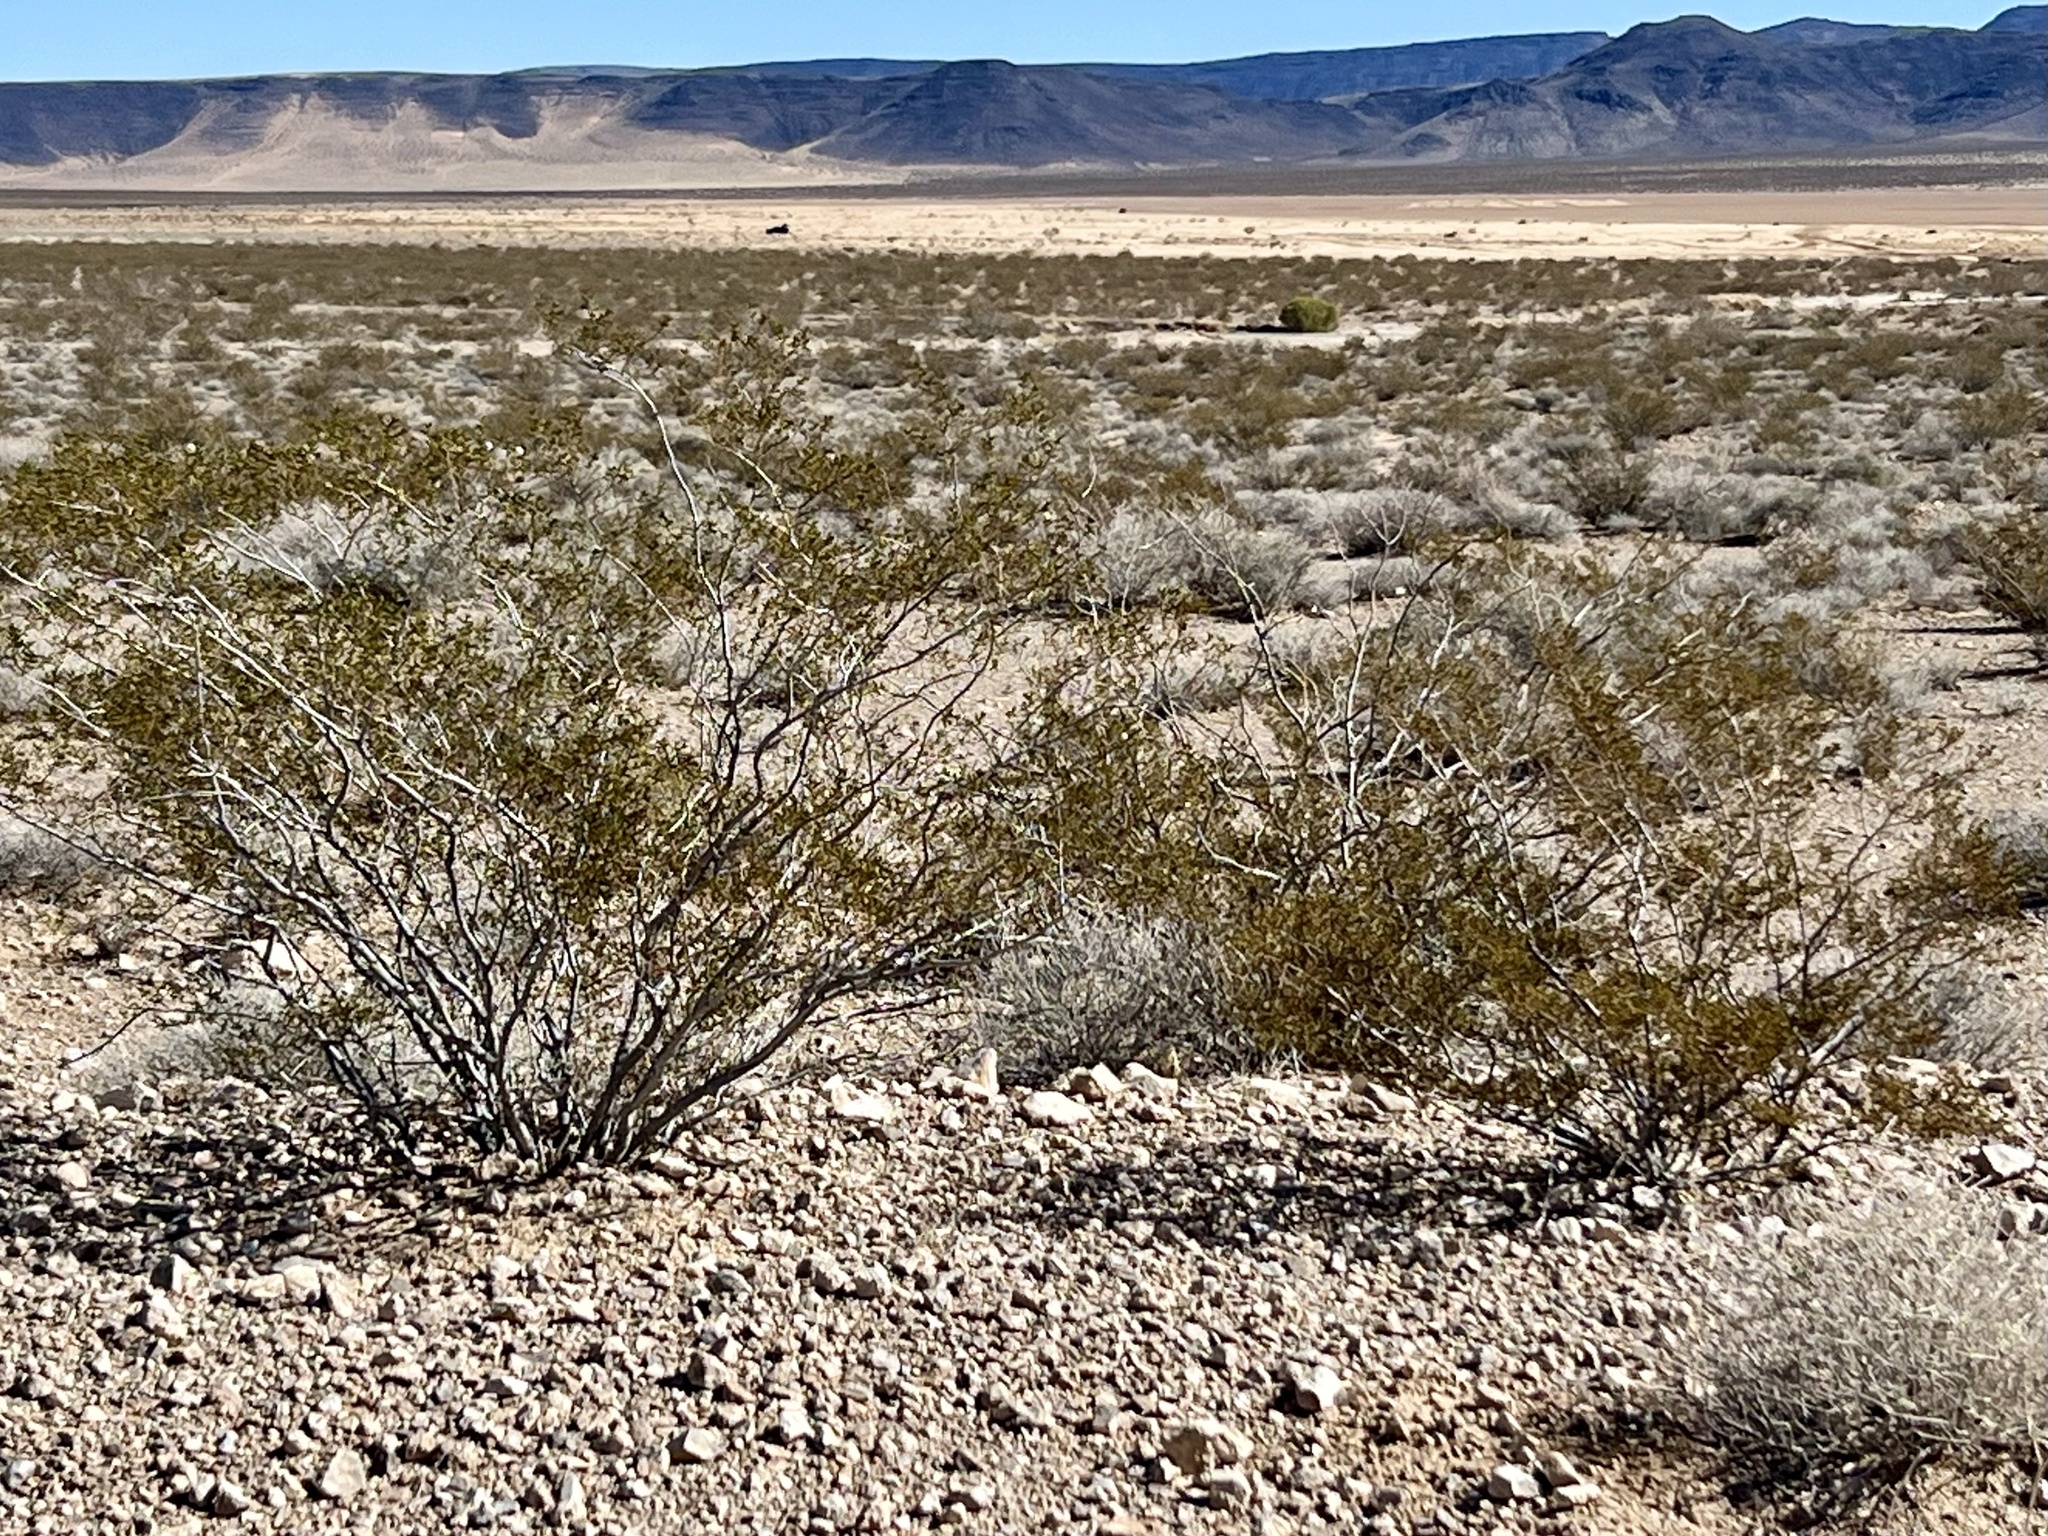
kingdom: Plantae
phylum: Tracheophyta
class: Magnoliopsida
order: Zygophyllales
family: Zygophyllaceae
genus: Larrea
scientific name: Larrea tridentata
